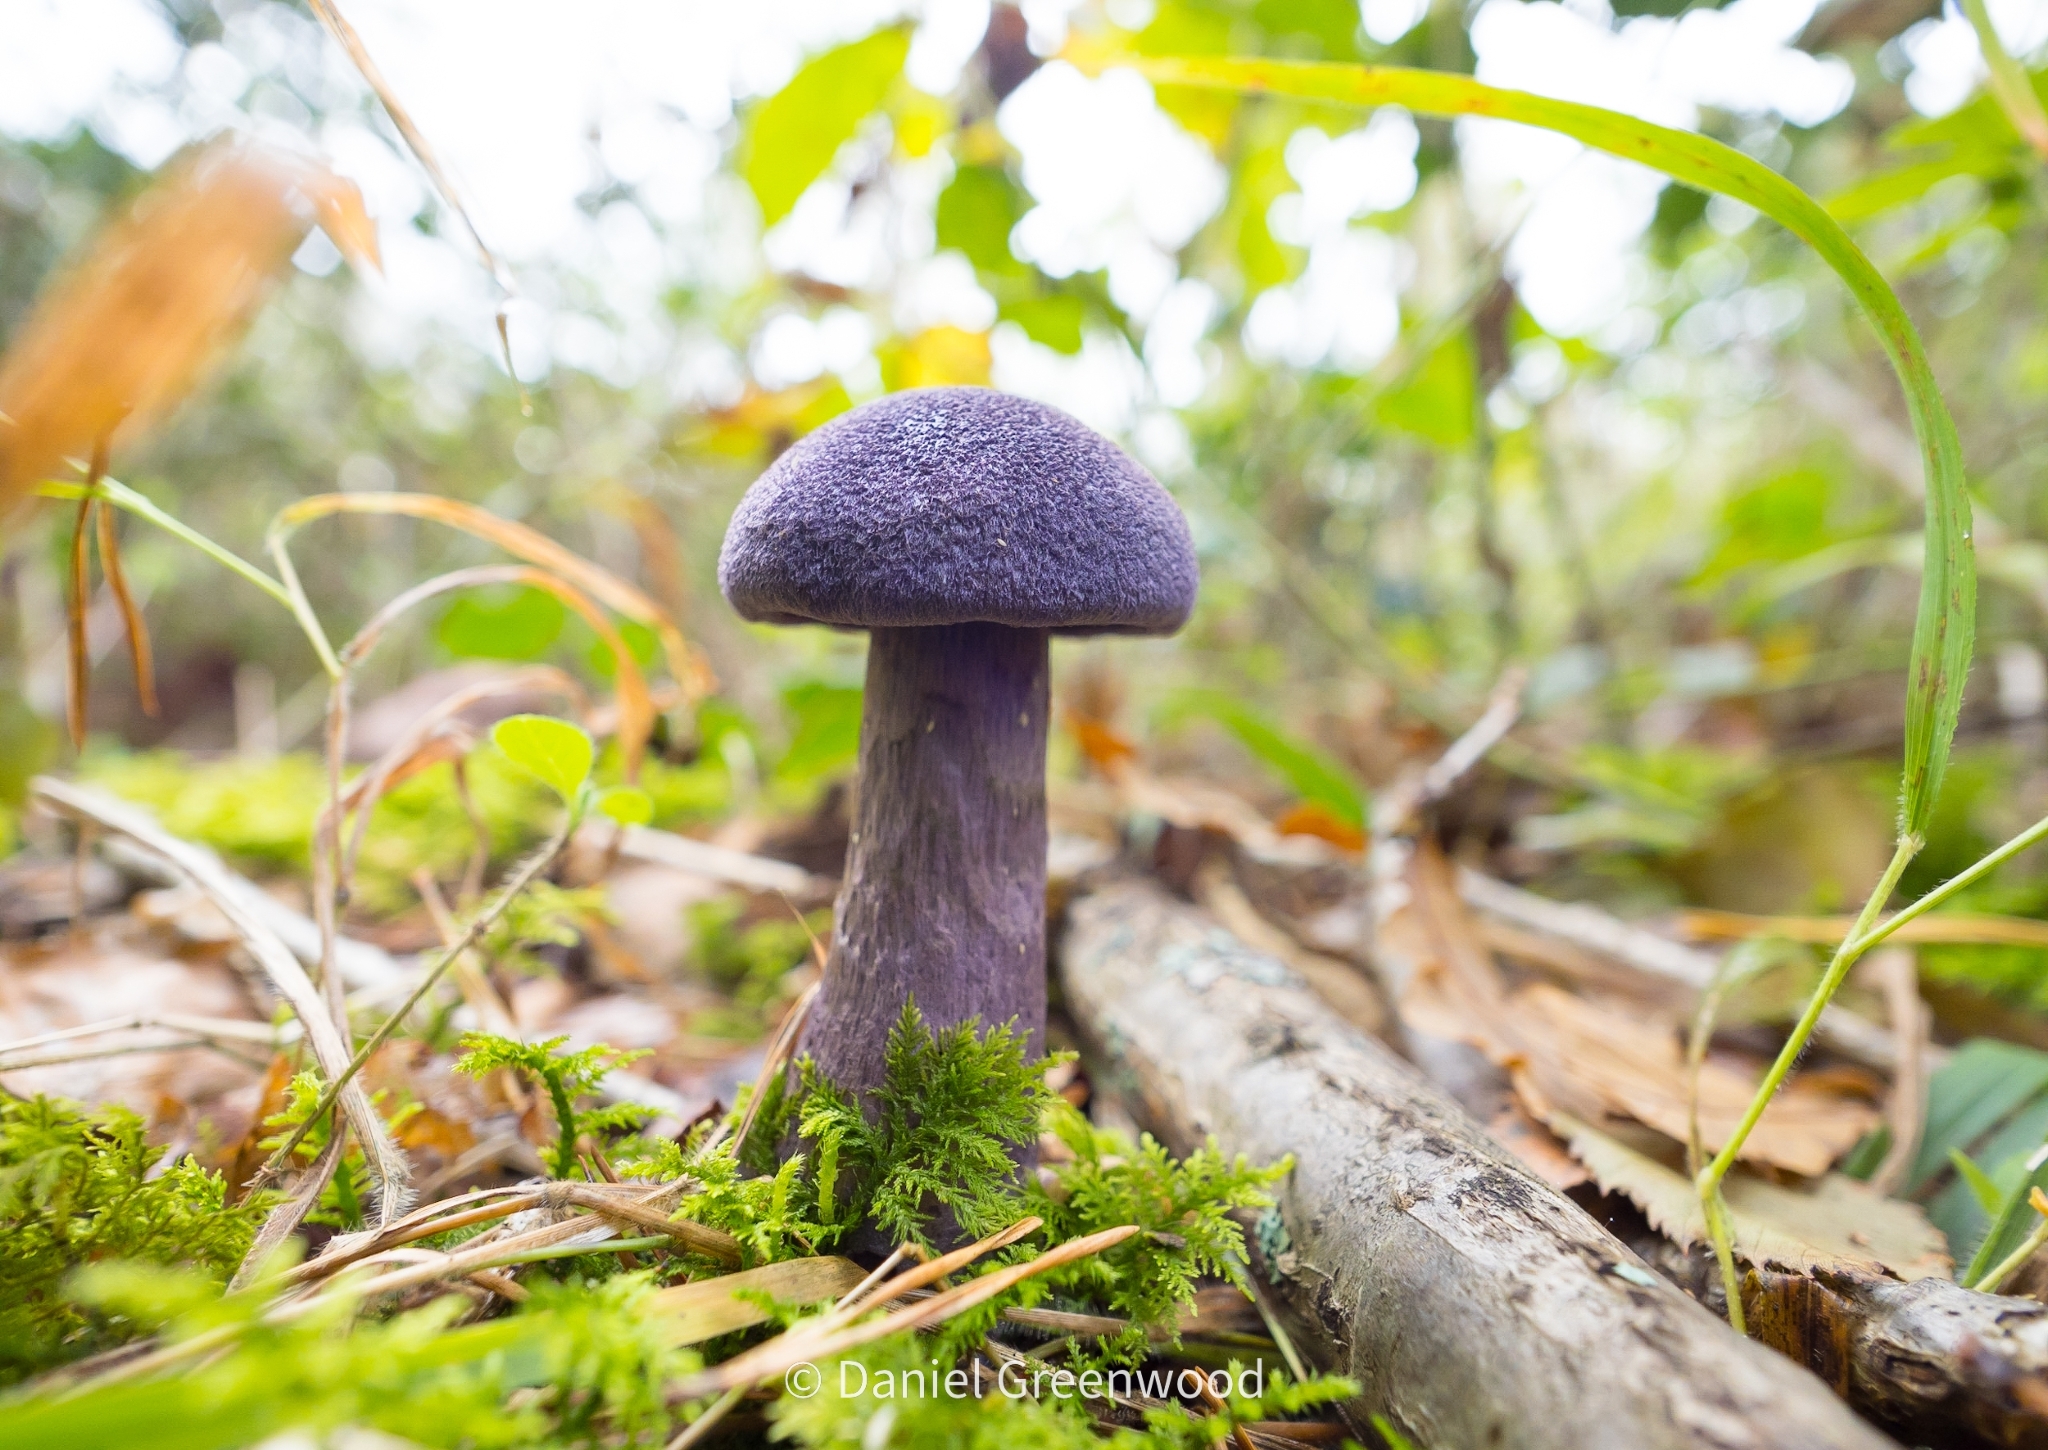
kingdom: Fungi
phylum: Basidiomycota
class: Agaricomycetes
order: Agaricales
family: Cortinariaceae
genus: Cortinarius
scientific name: Cortinarius violaceus
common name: Violet webcap
